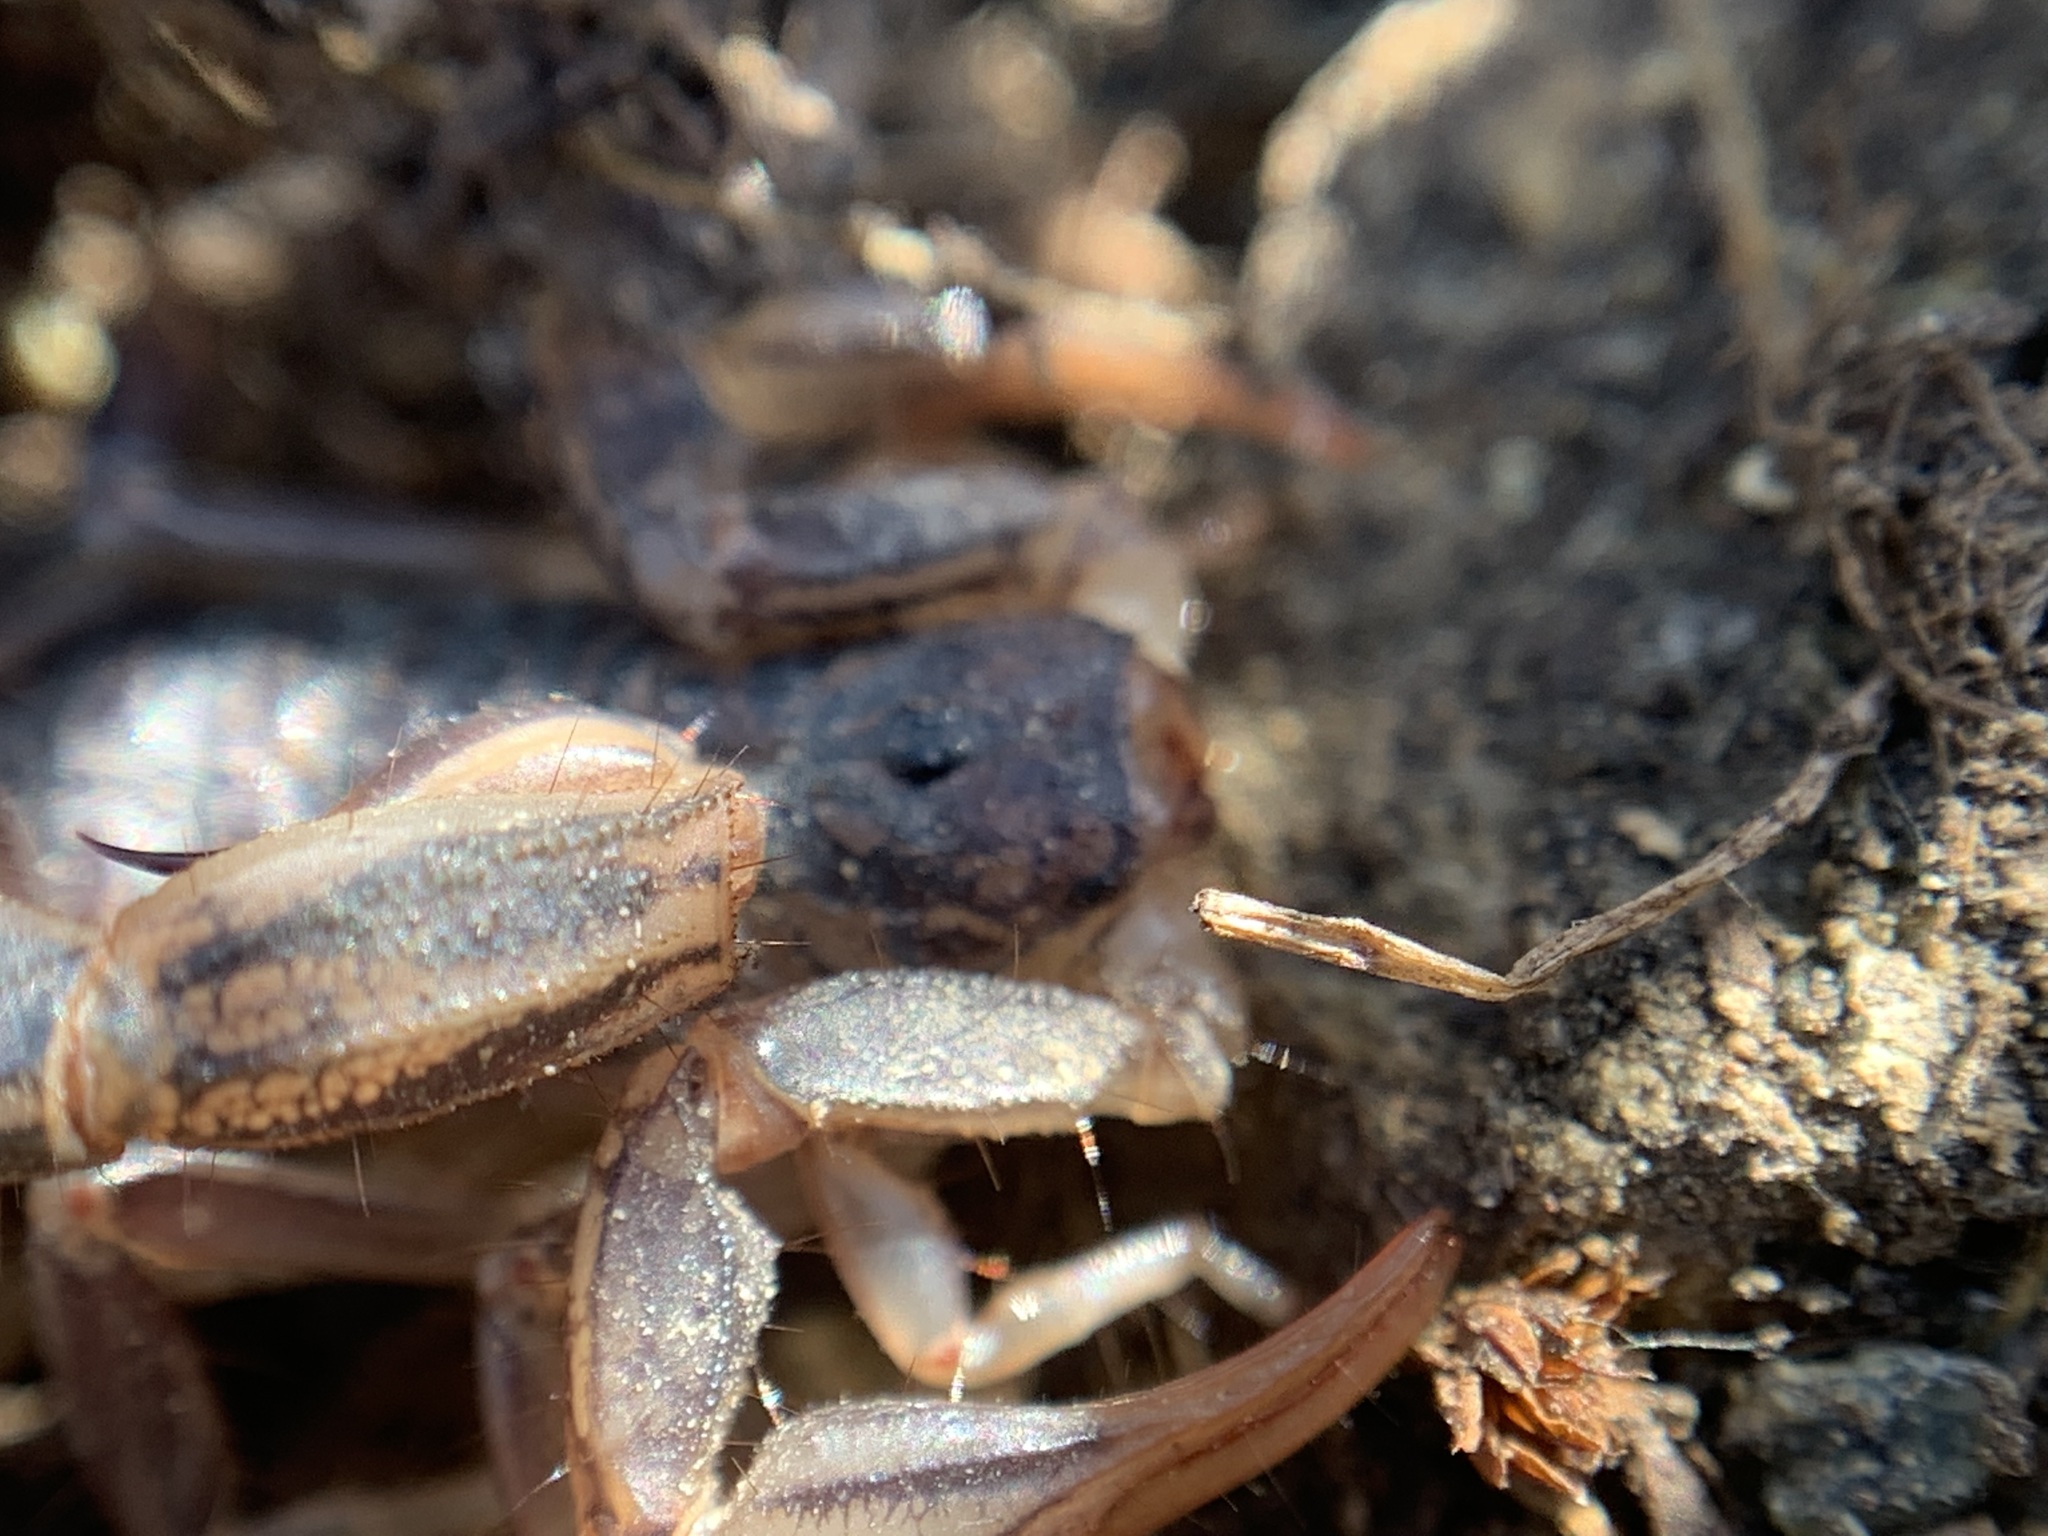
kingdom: Animalia
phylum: Arthropoda
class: Arachnida
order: Scorpiones
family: Vaejovidae
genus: Paruroctonus
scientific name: Paruroctonus silvestrii
